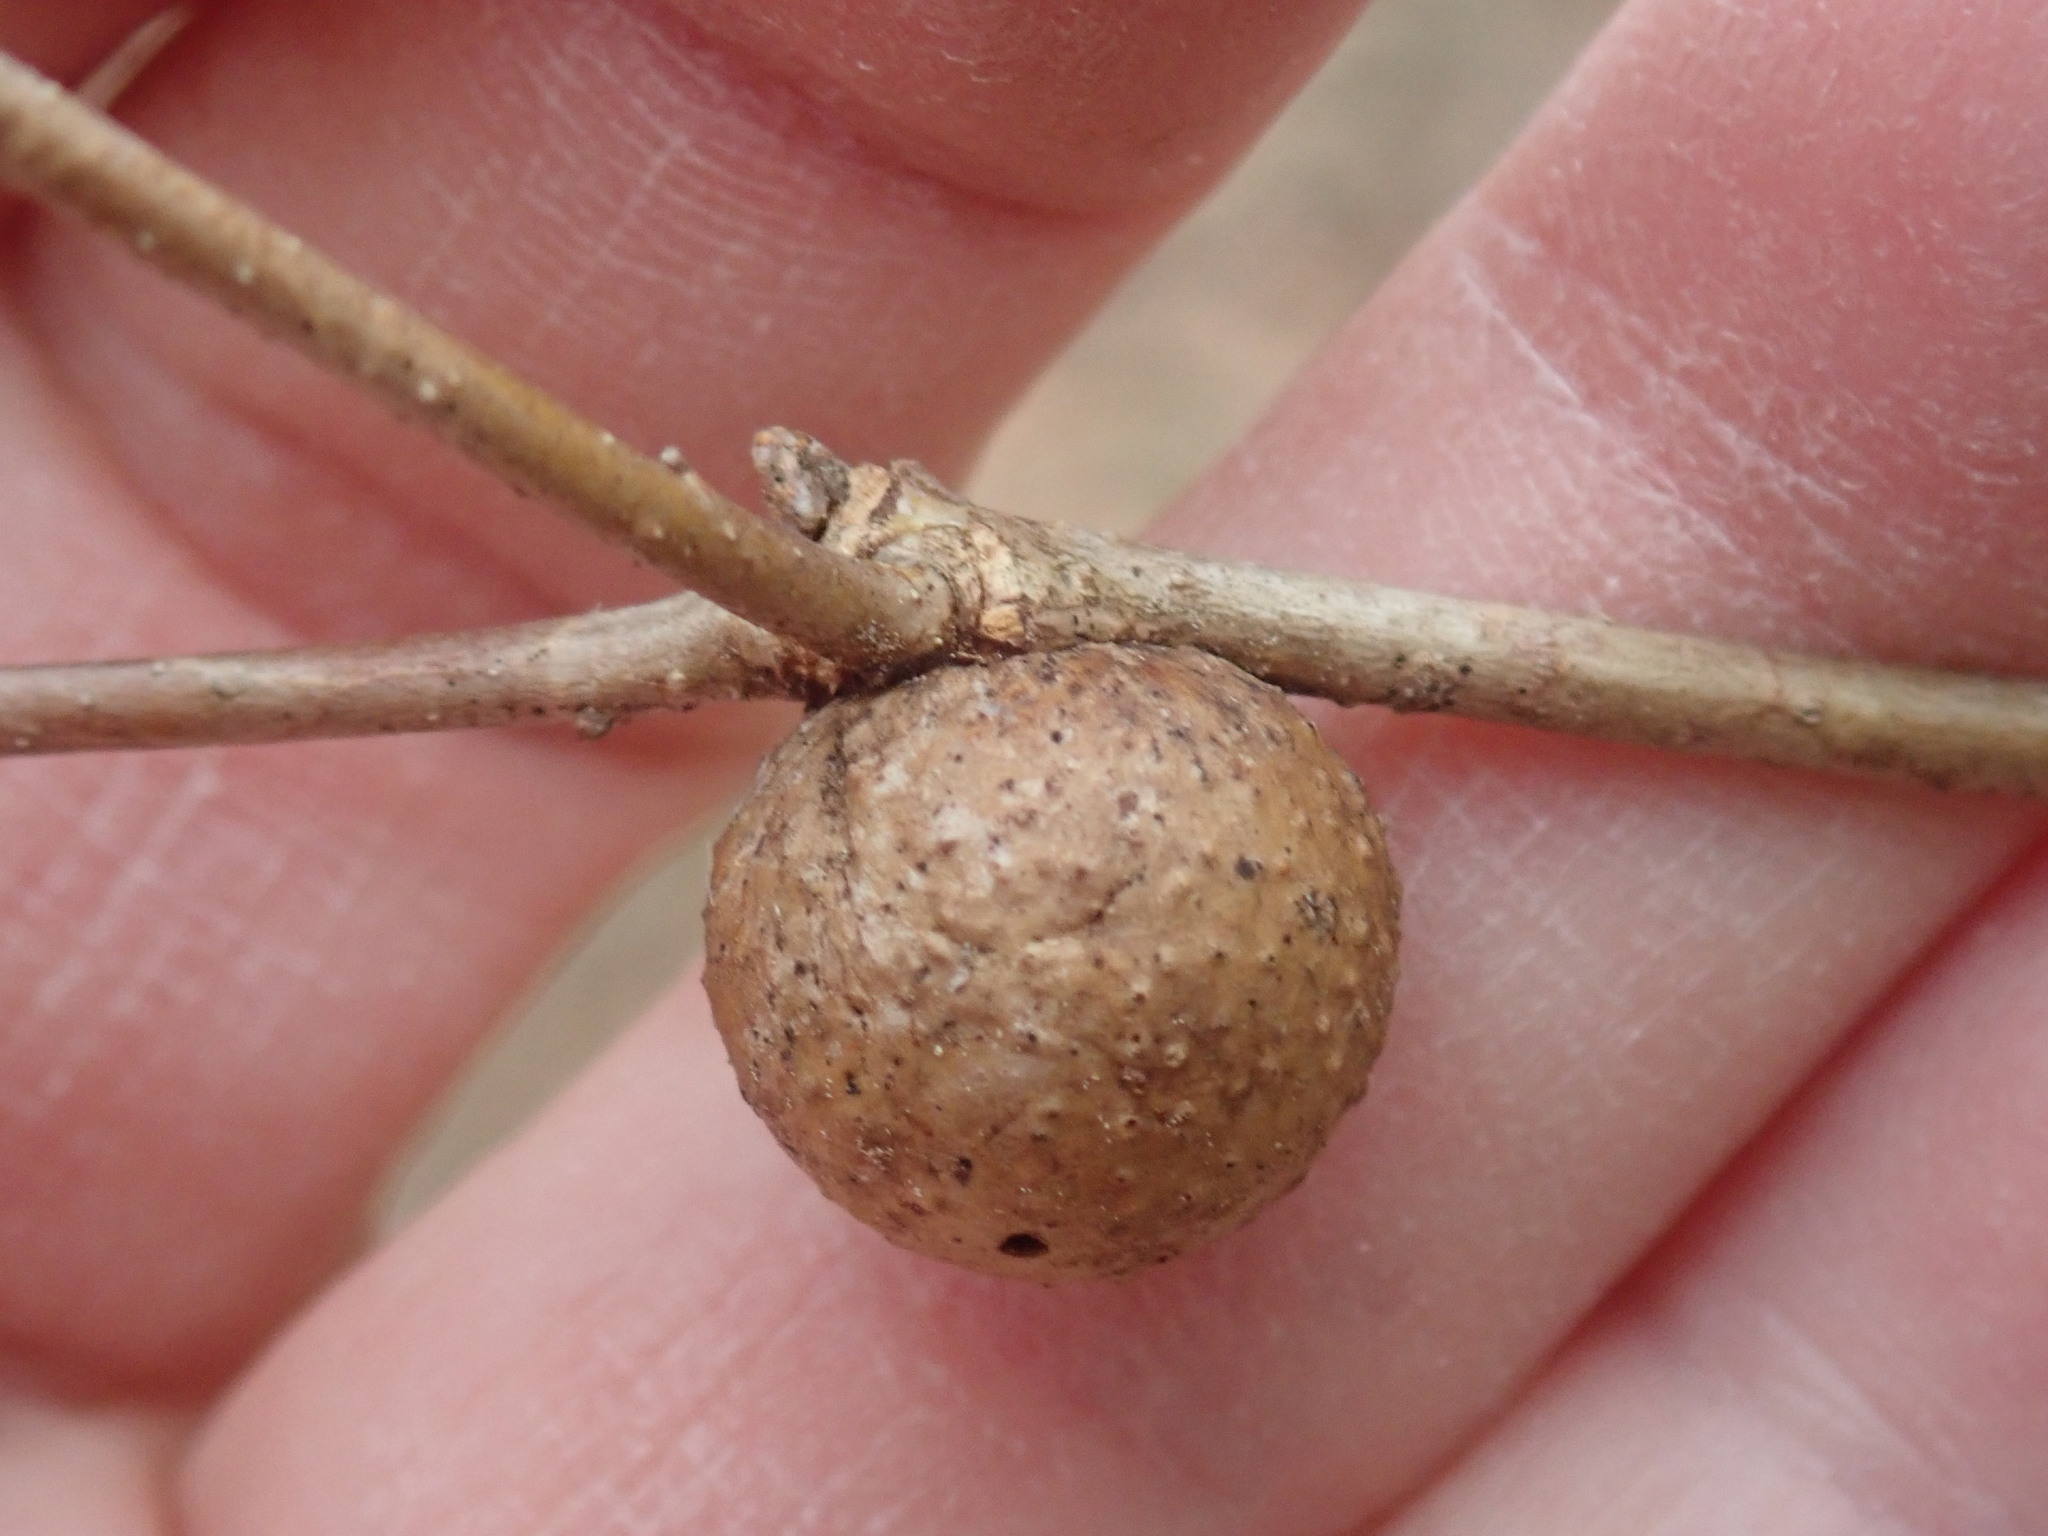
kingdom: Animalia
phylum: Arthropoda
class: Insecta
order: Hymenoptera
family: Cynipidae
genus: Disholcaspis
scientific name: Disholcaspis quercusglobulus
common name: Round bullet gall wasp
